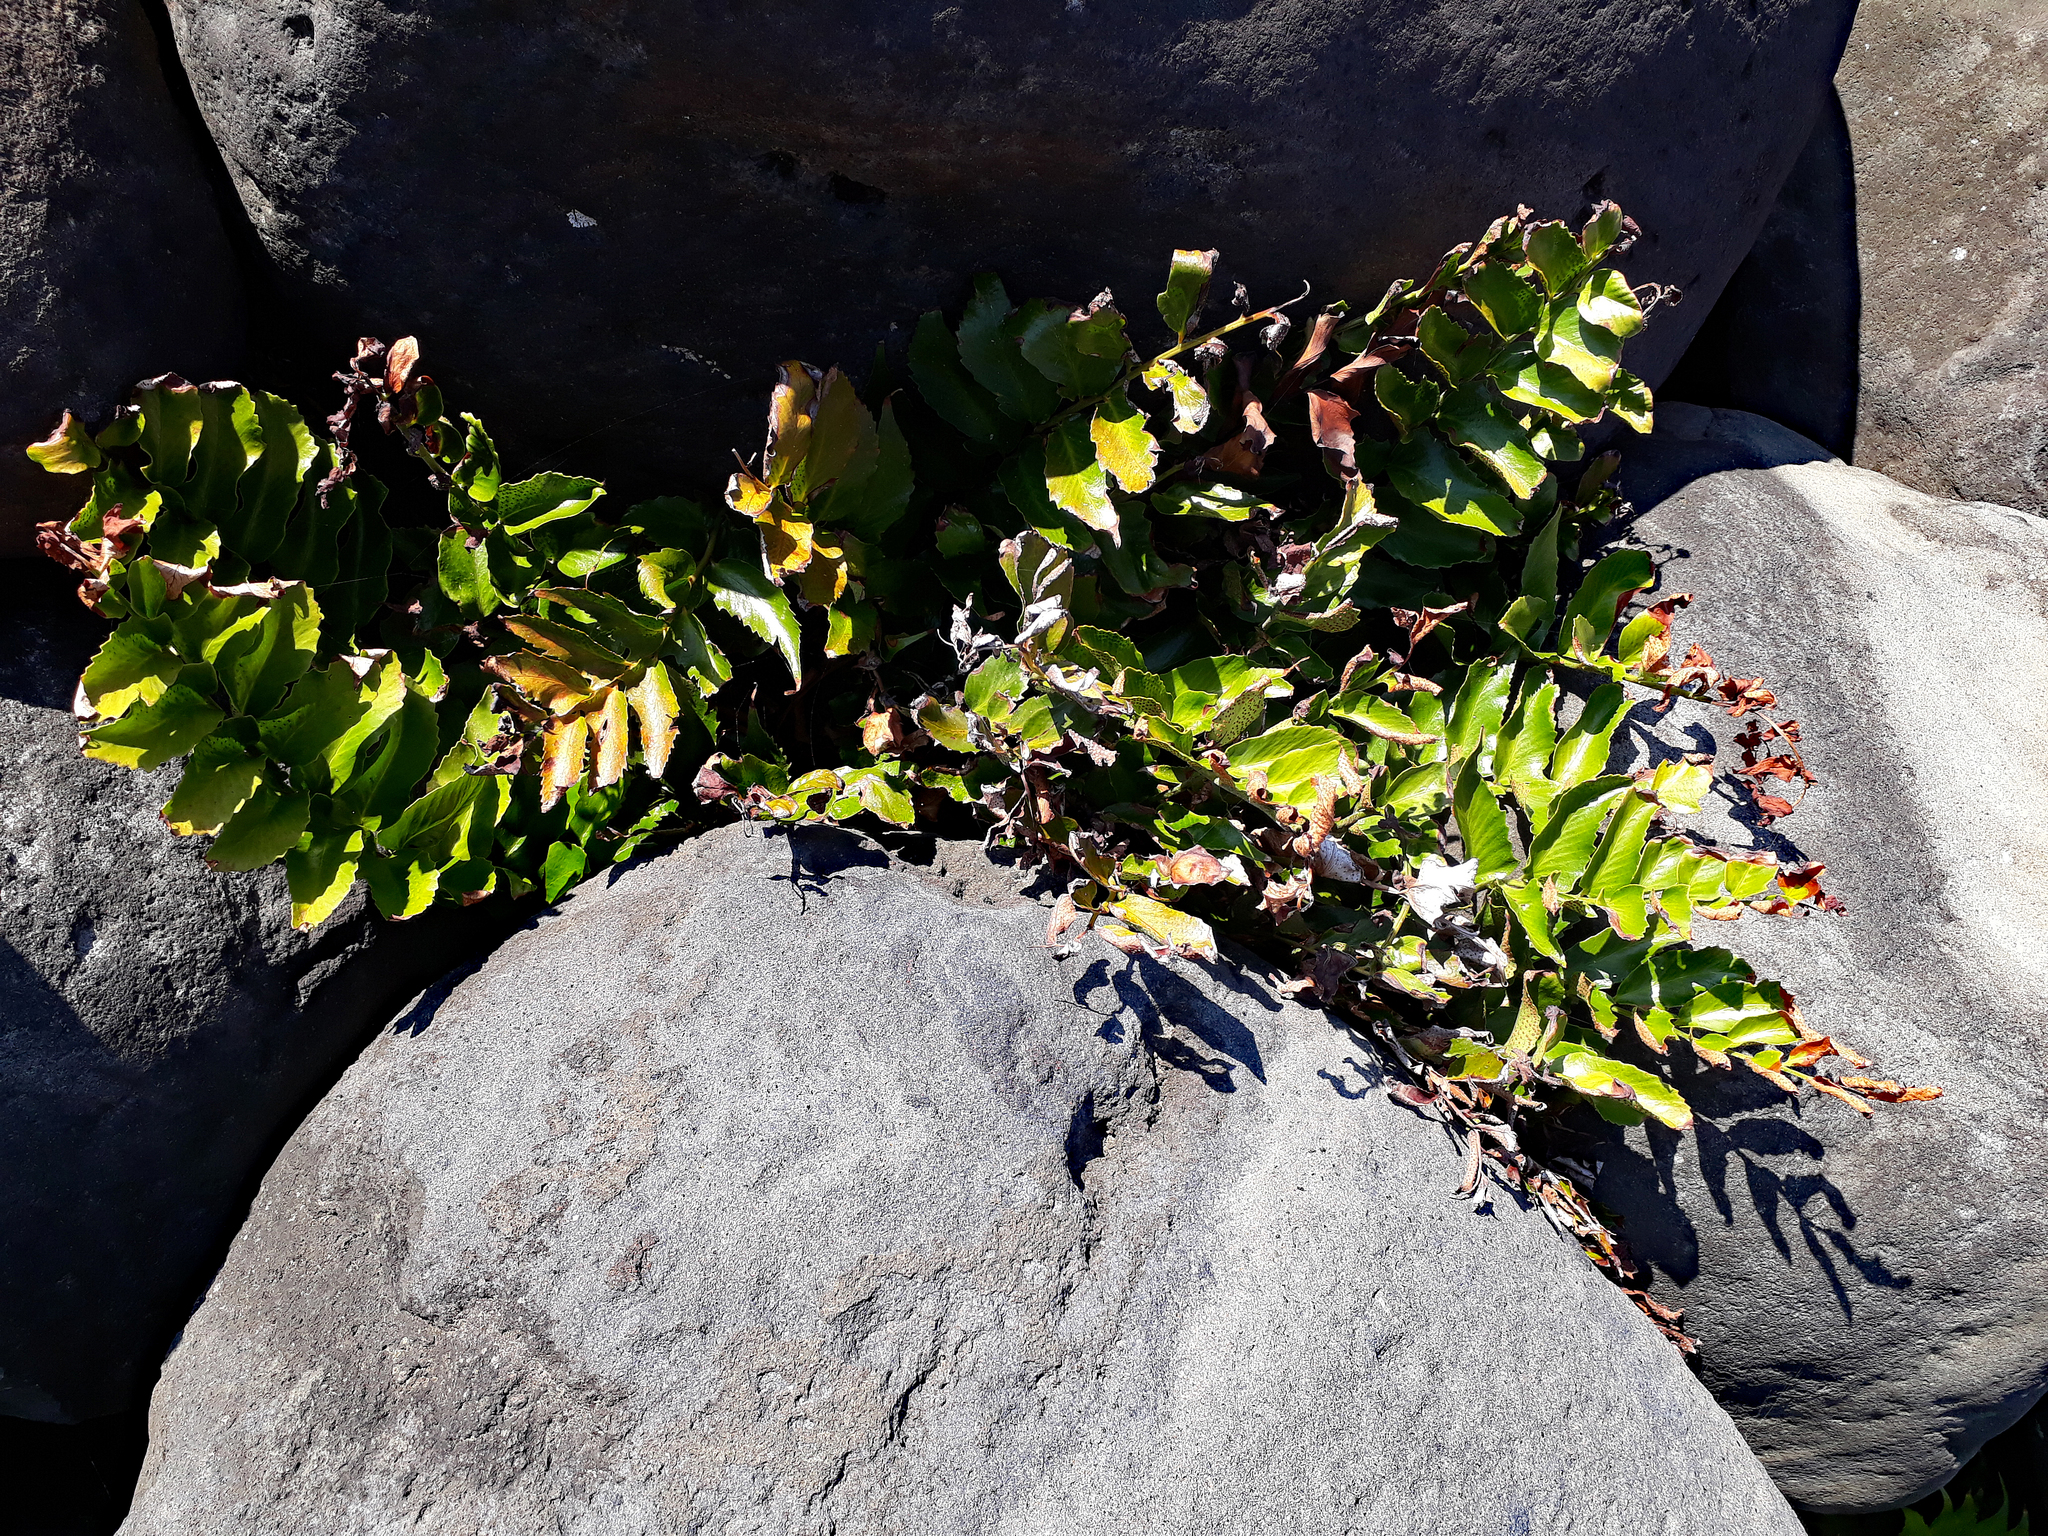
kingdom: Plantae
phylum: Tracheophyta
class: Polypodiopsida
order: Polypodiales
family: Dryopteridaceae
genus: Cyrtomium
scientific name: Cyrtomium falcatum
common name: House holly-fern
